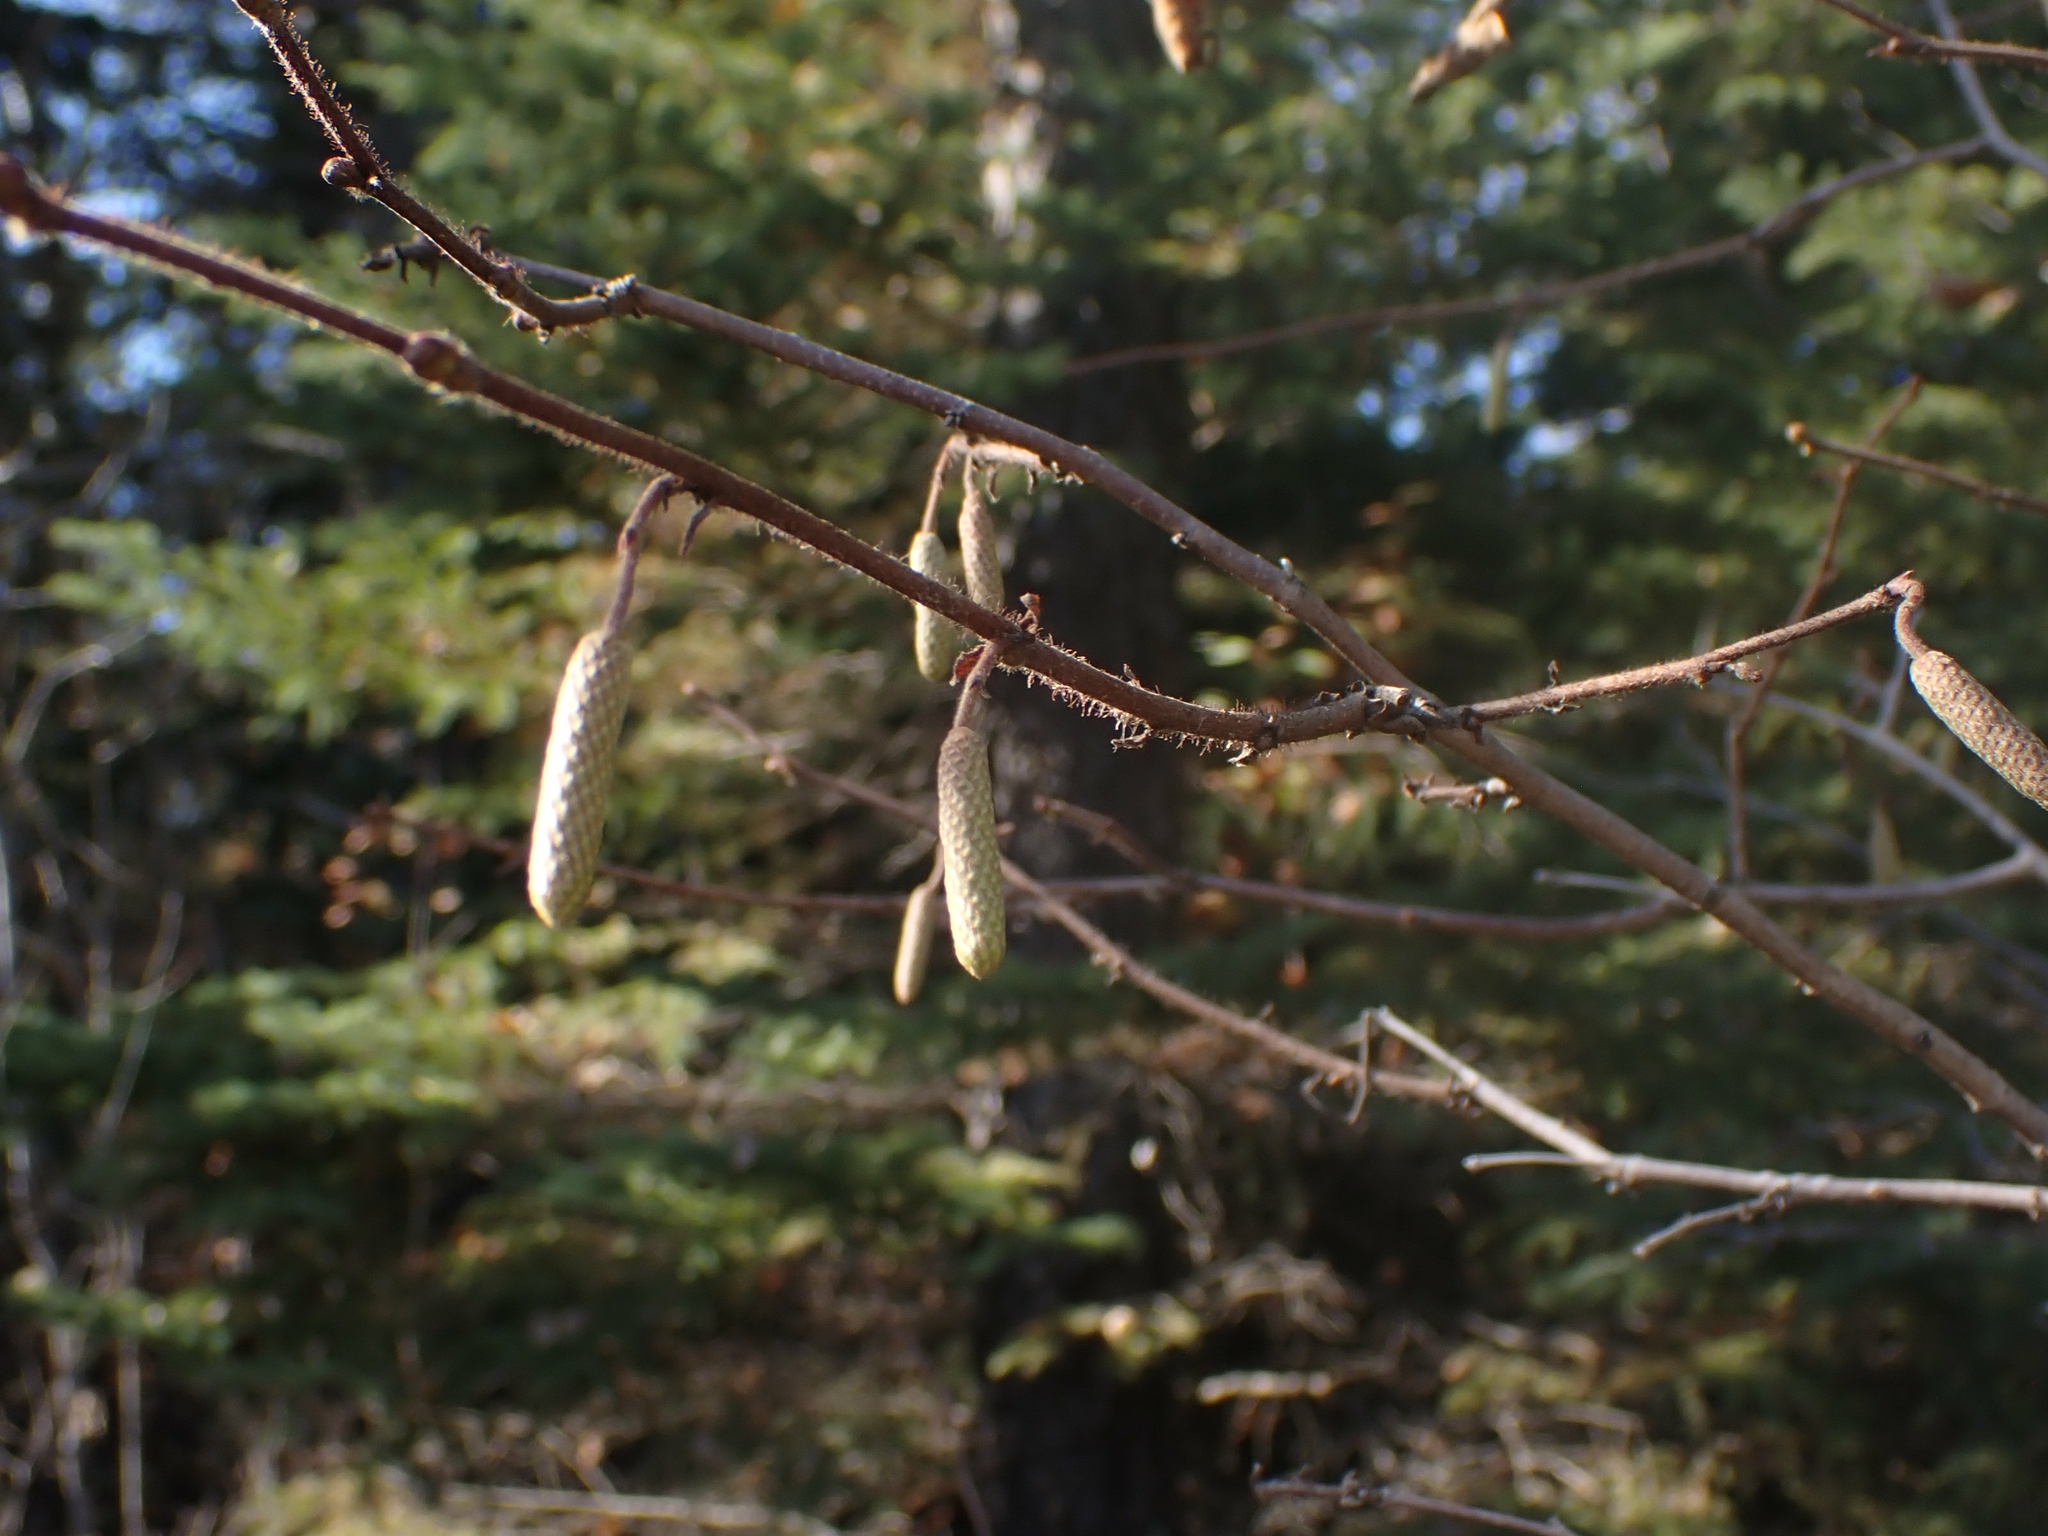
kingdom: Plantae
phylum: Tracheophyta
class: Magnoliopsida
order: Fagales
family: Betulaceae
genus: Corylus
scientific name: Corylus americana
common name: American hazel
